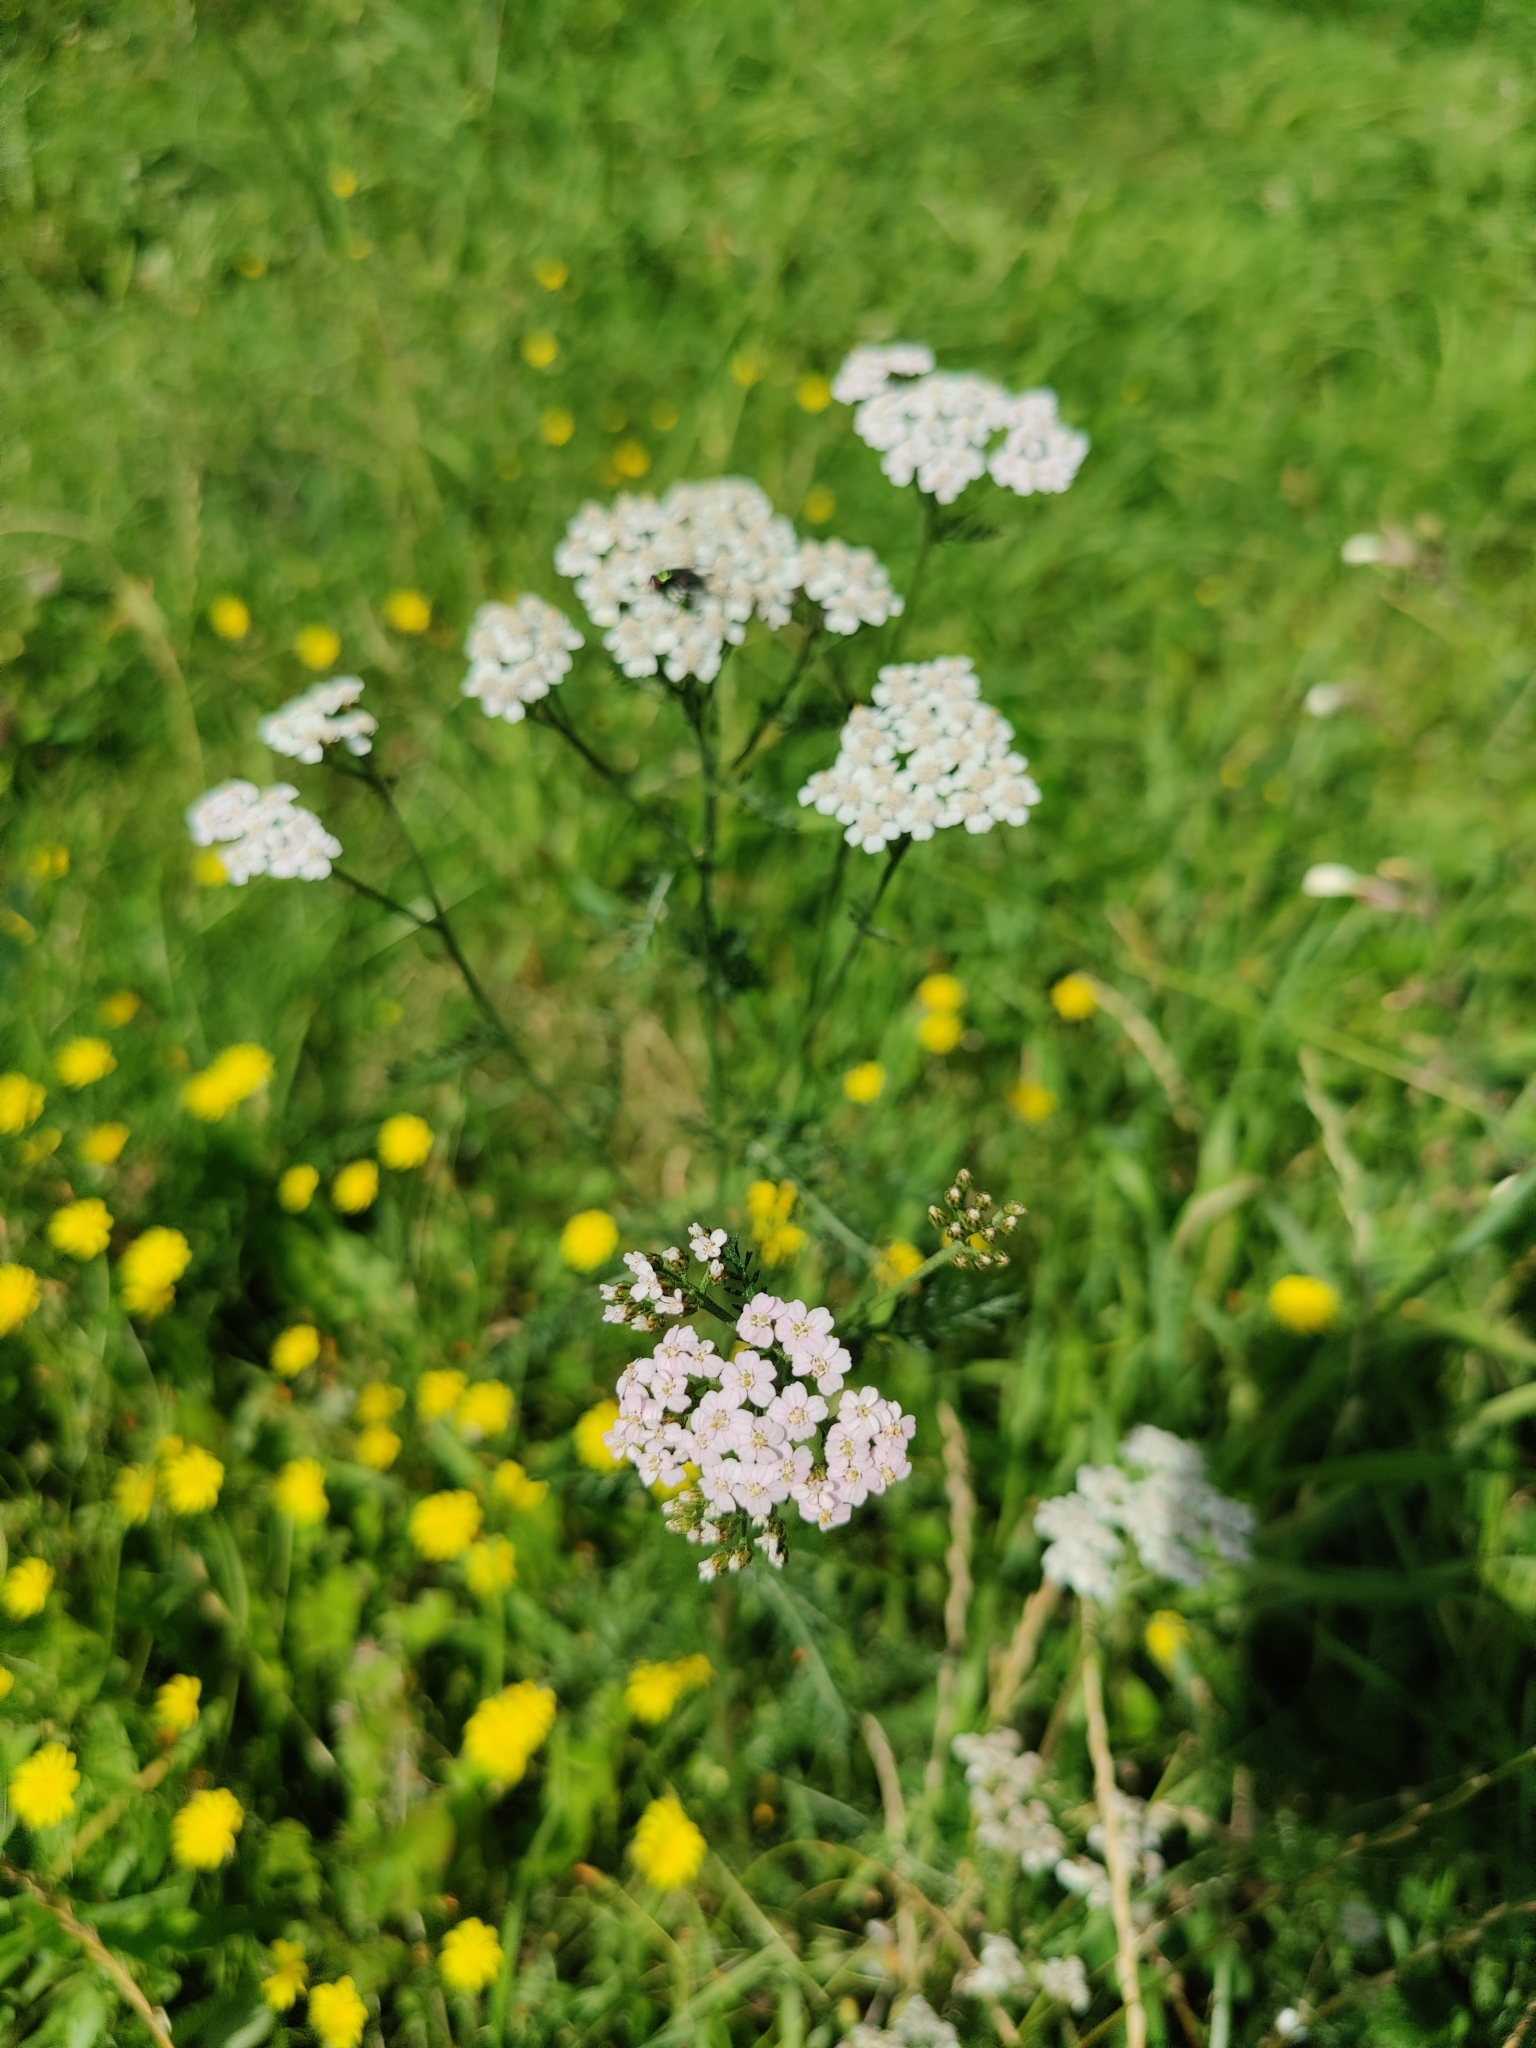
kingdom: Plantae
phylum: Tracheophyta
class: Magnoliopsida
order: Asterales
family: Asteraceae
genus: Achillea
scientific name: Achillea millefolium
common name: Yarrow
